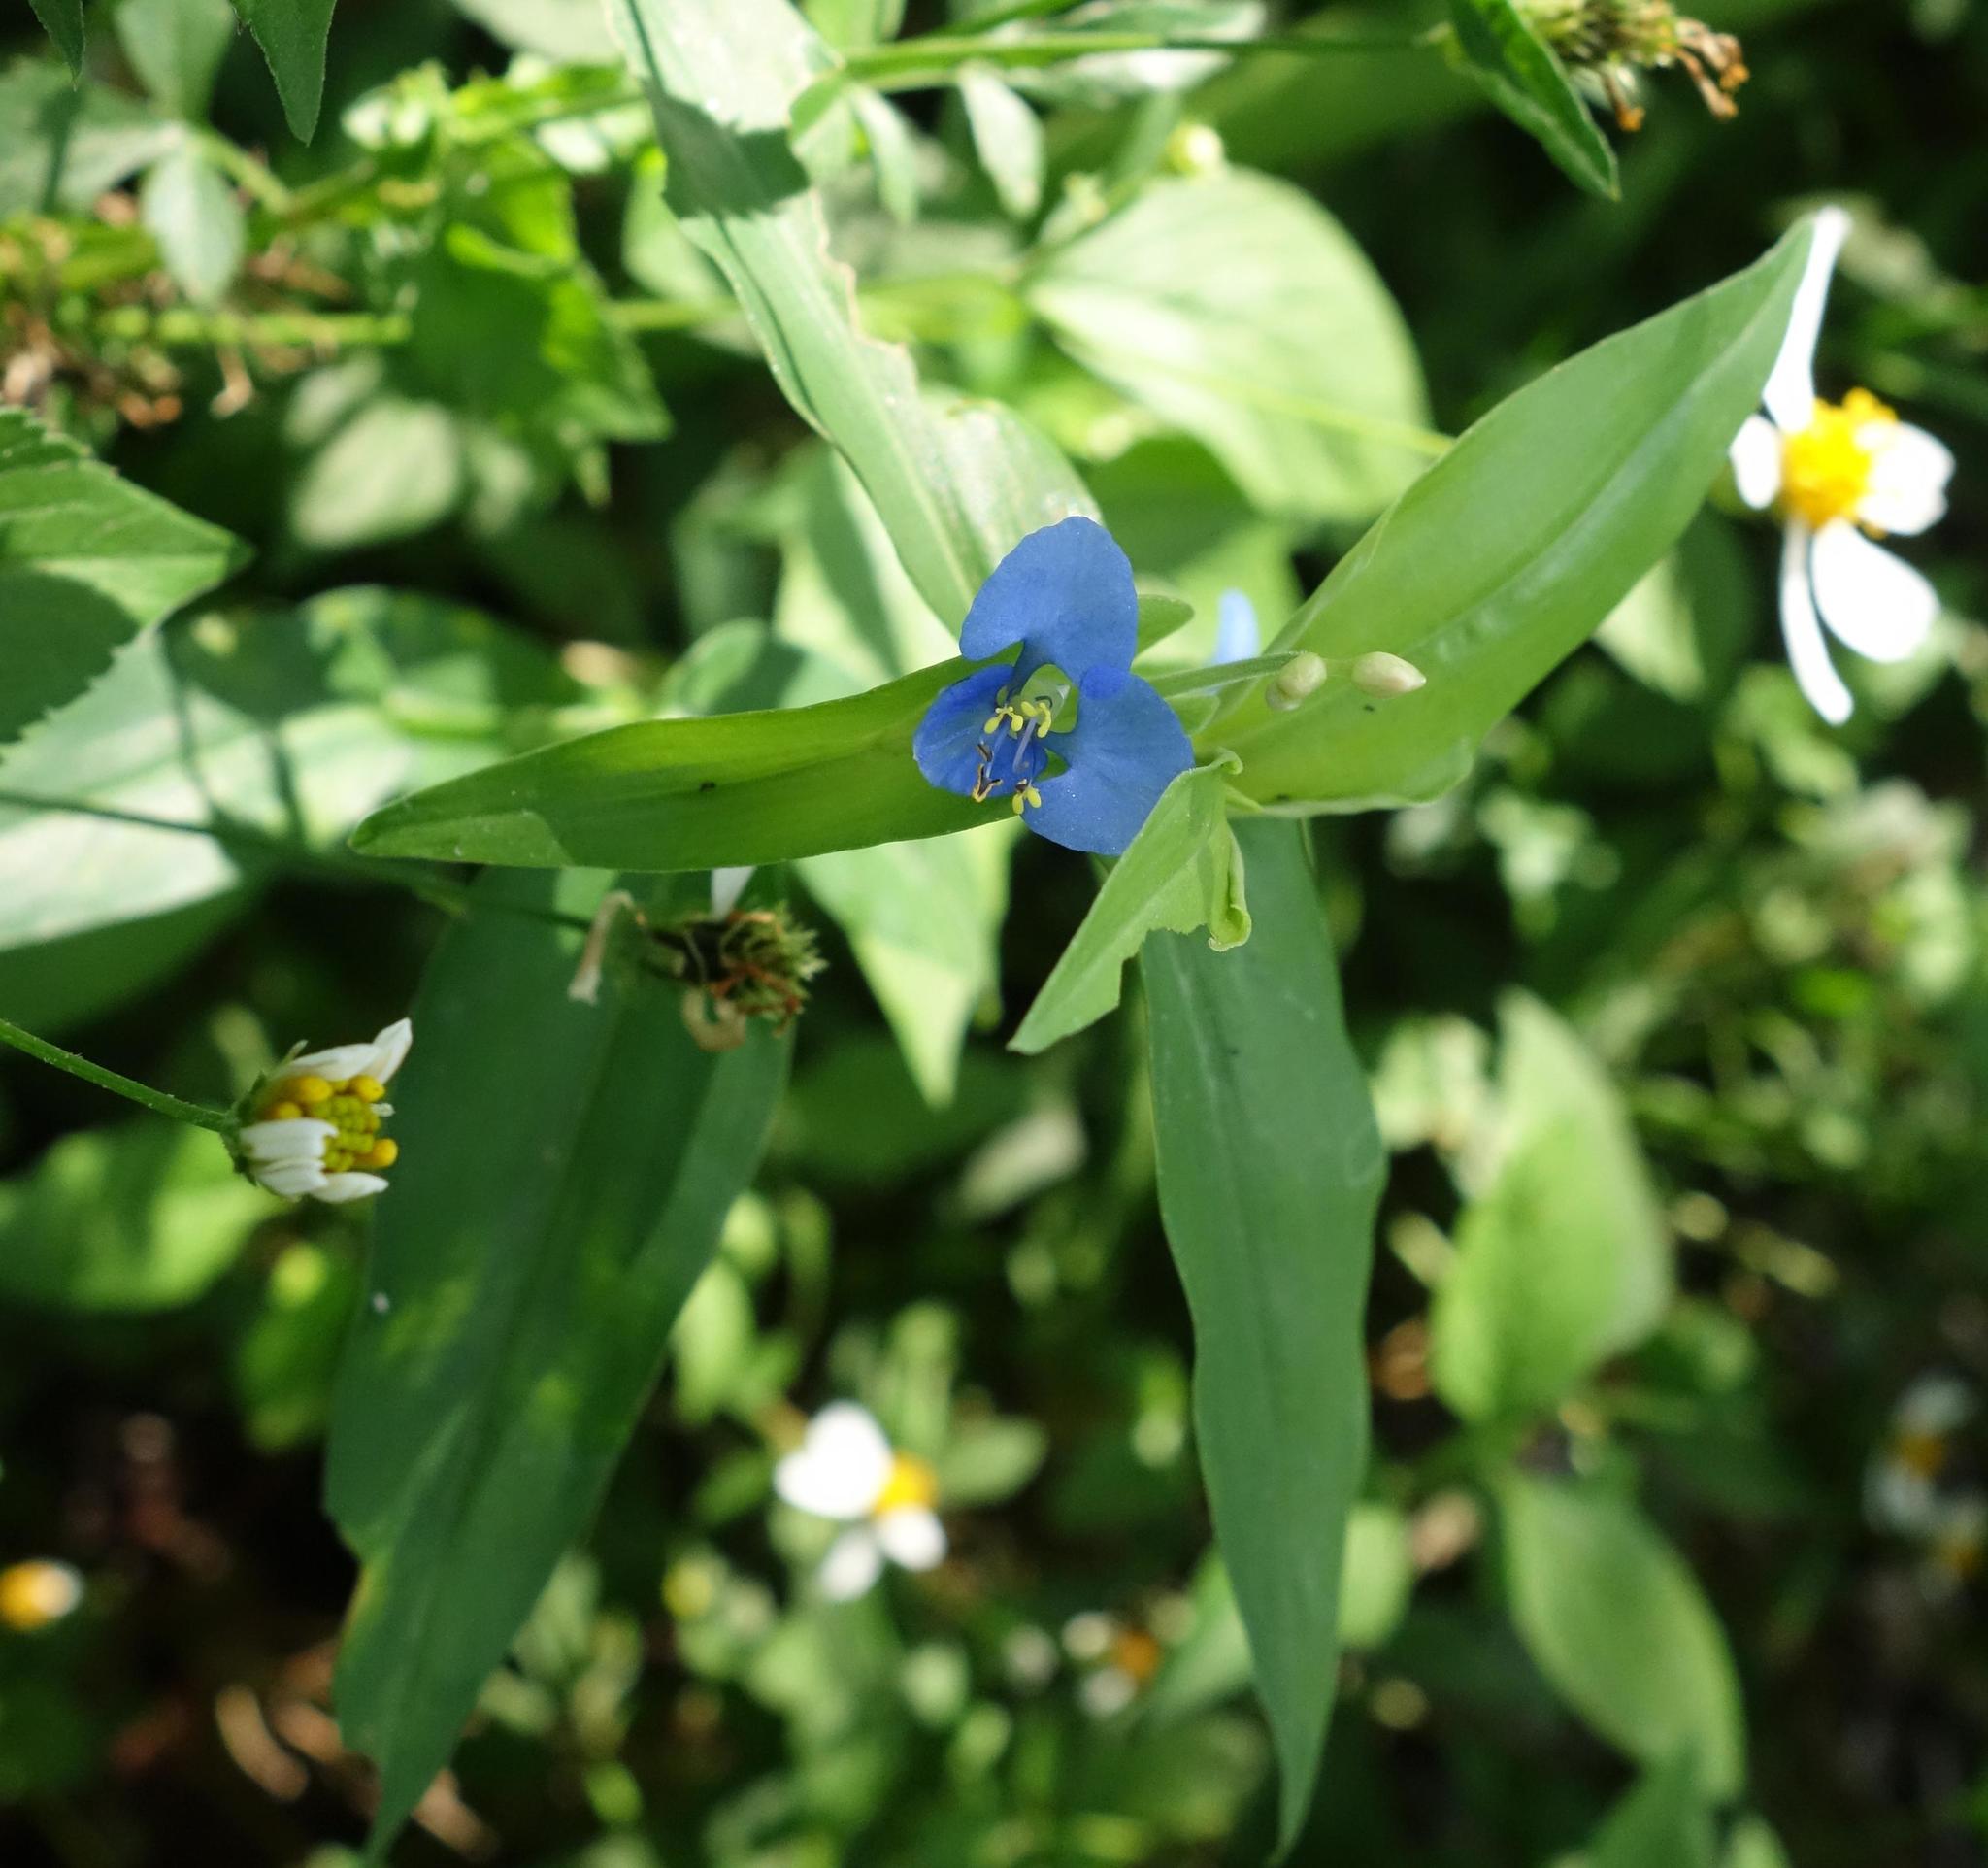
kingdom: Plantae
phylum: Tracheophyta
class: Liliopsida
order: Commelinales
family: Commelinaceae
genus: Commelina
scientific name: Commelina diffusa
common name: Climbing dayflower
